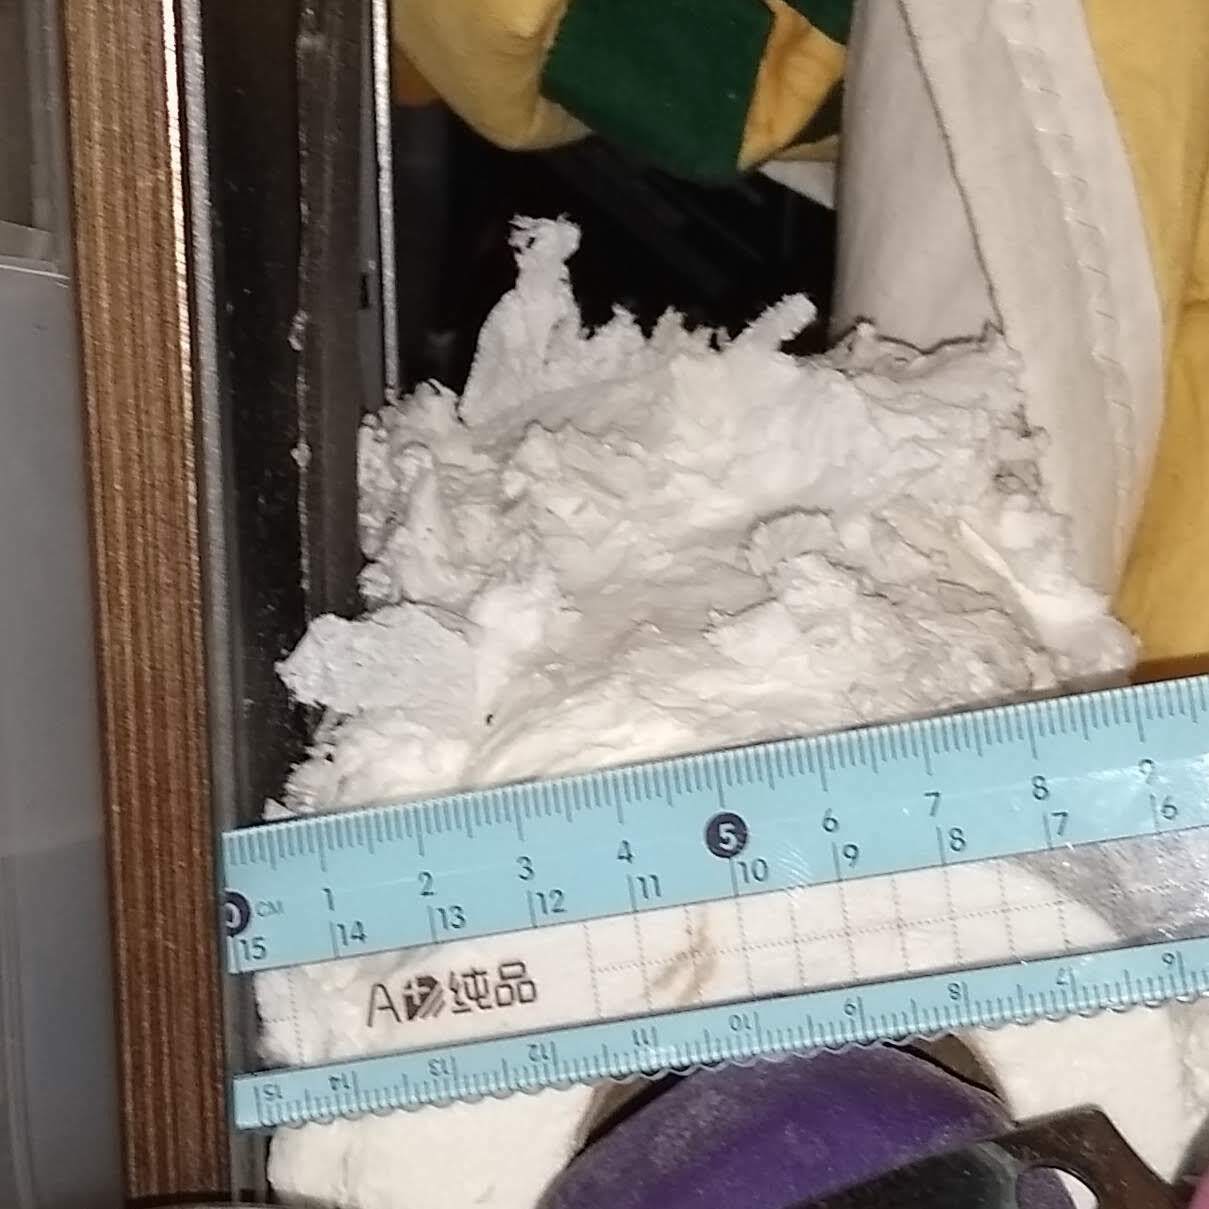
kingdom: Animalia
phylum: Chordata
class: Mammalia
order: Carnivora
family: Mustelidae
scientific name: Mustelidae
